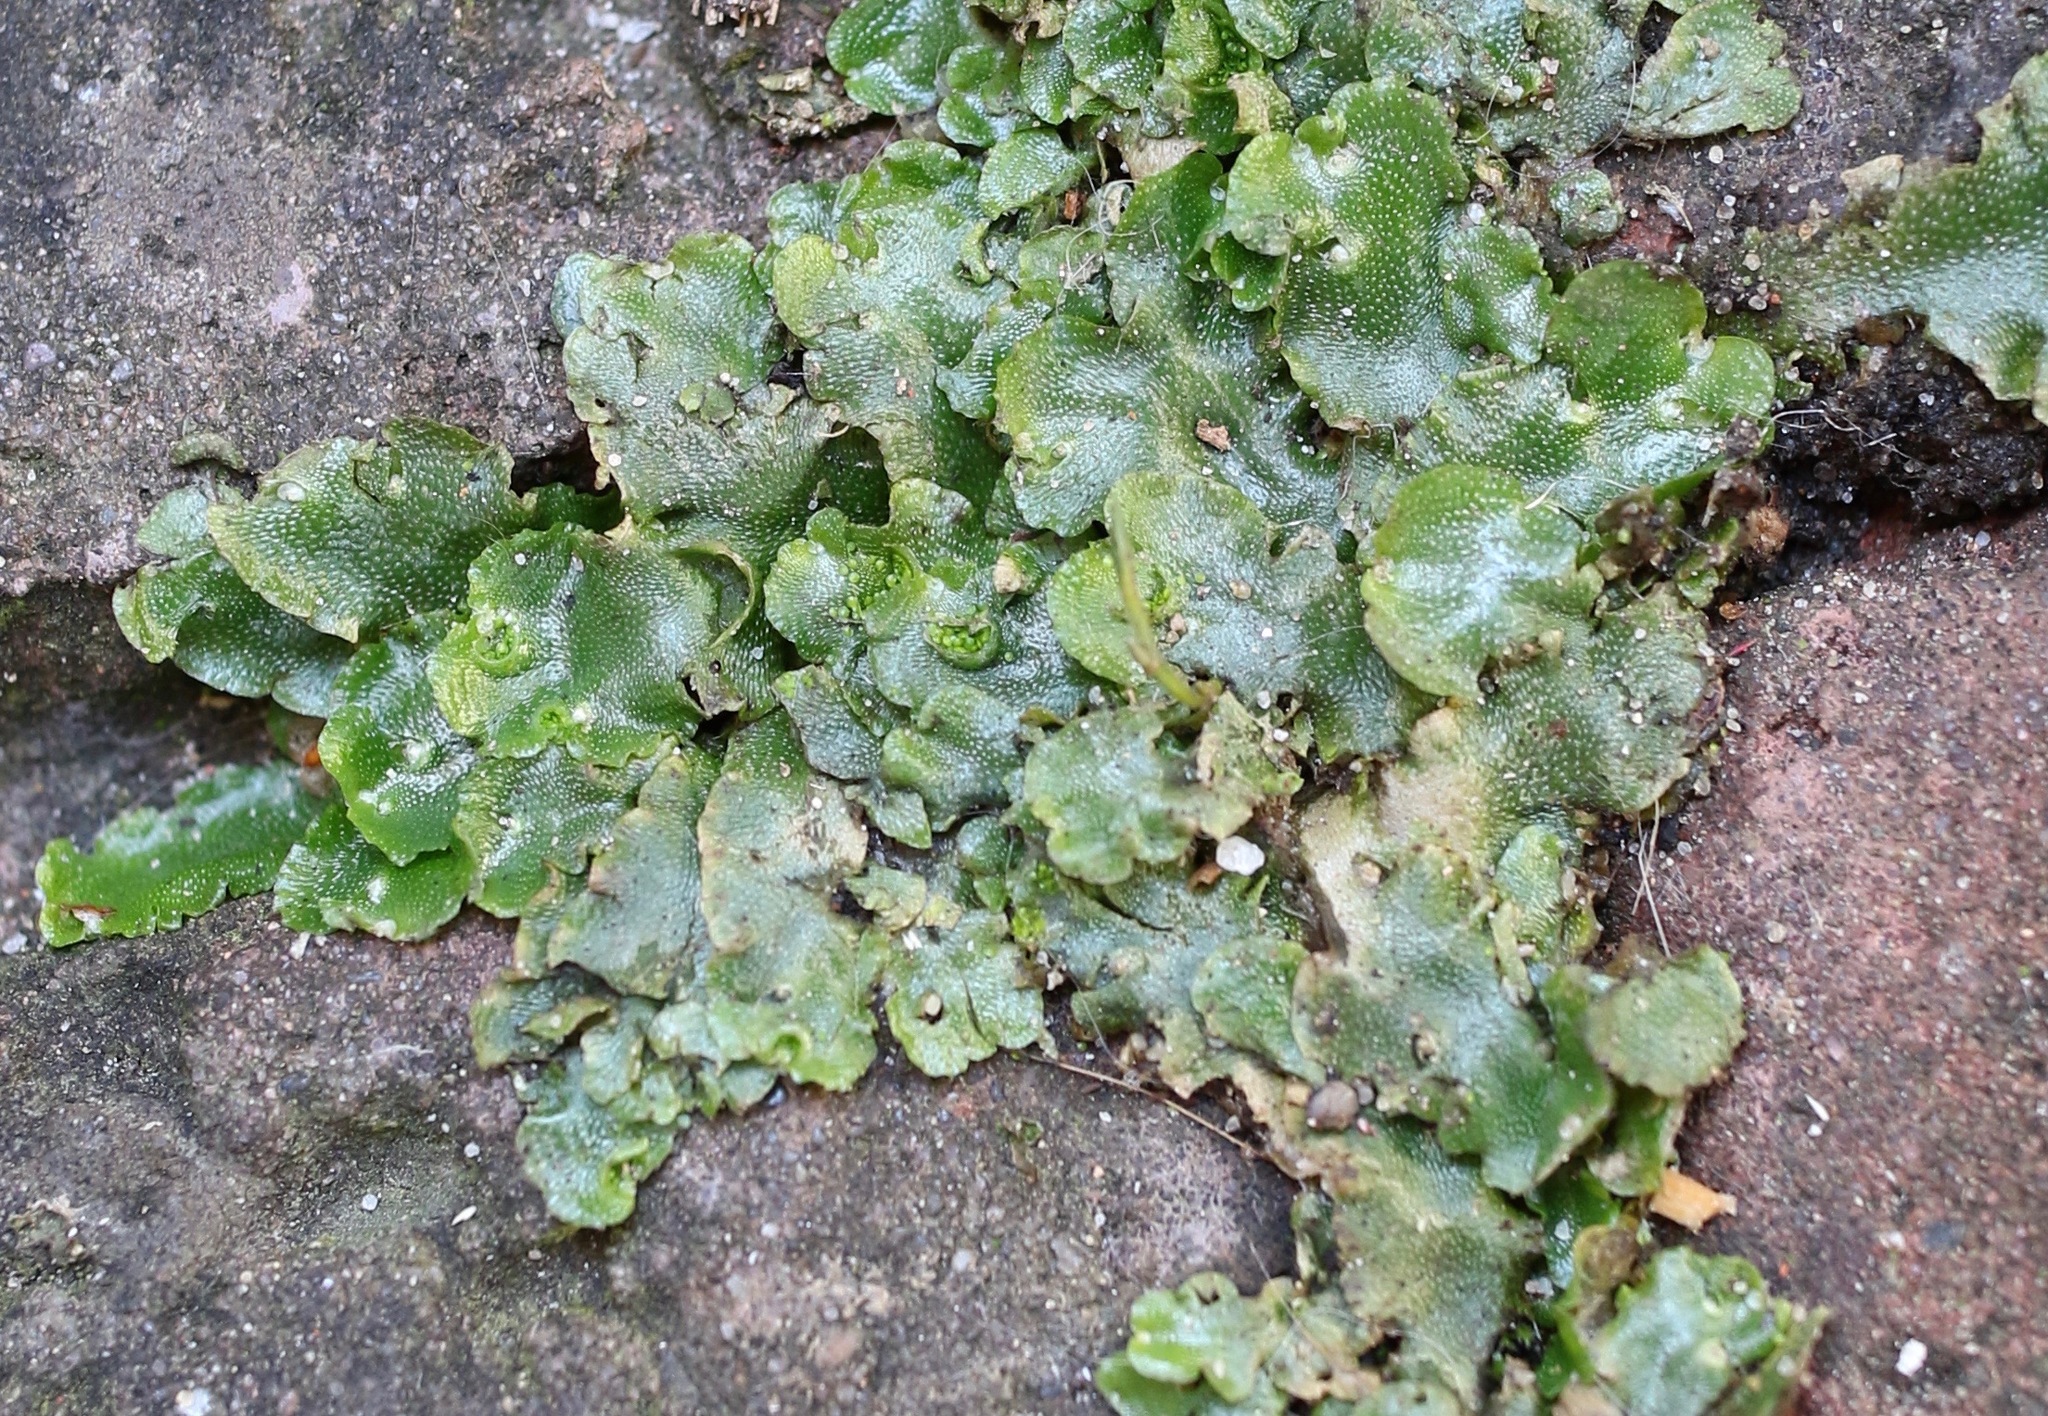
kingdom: Plantae
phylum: Marchantiophyta
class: Marchantiopsida
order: Lunulariales
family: Lunulariaceae
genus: Lunularia
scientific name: Lunularia cruciata
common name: Crescent-cup liverwort
